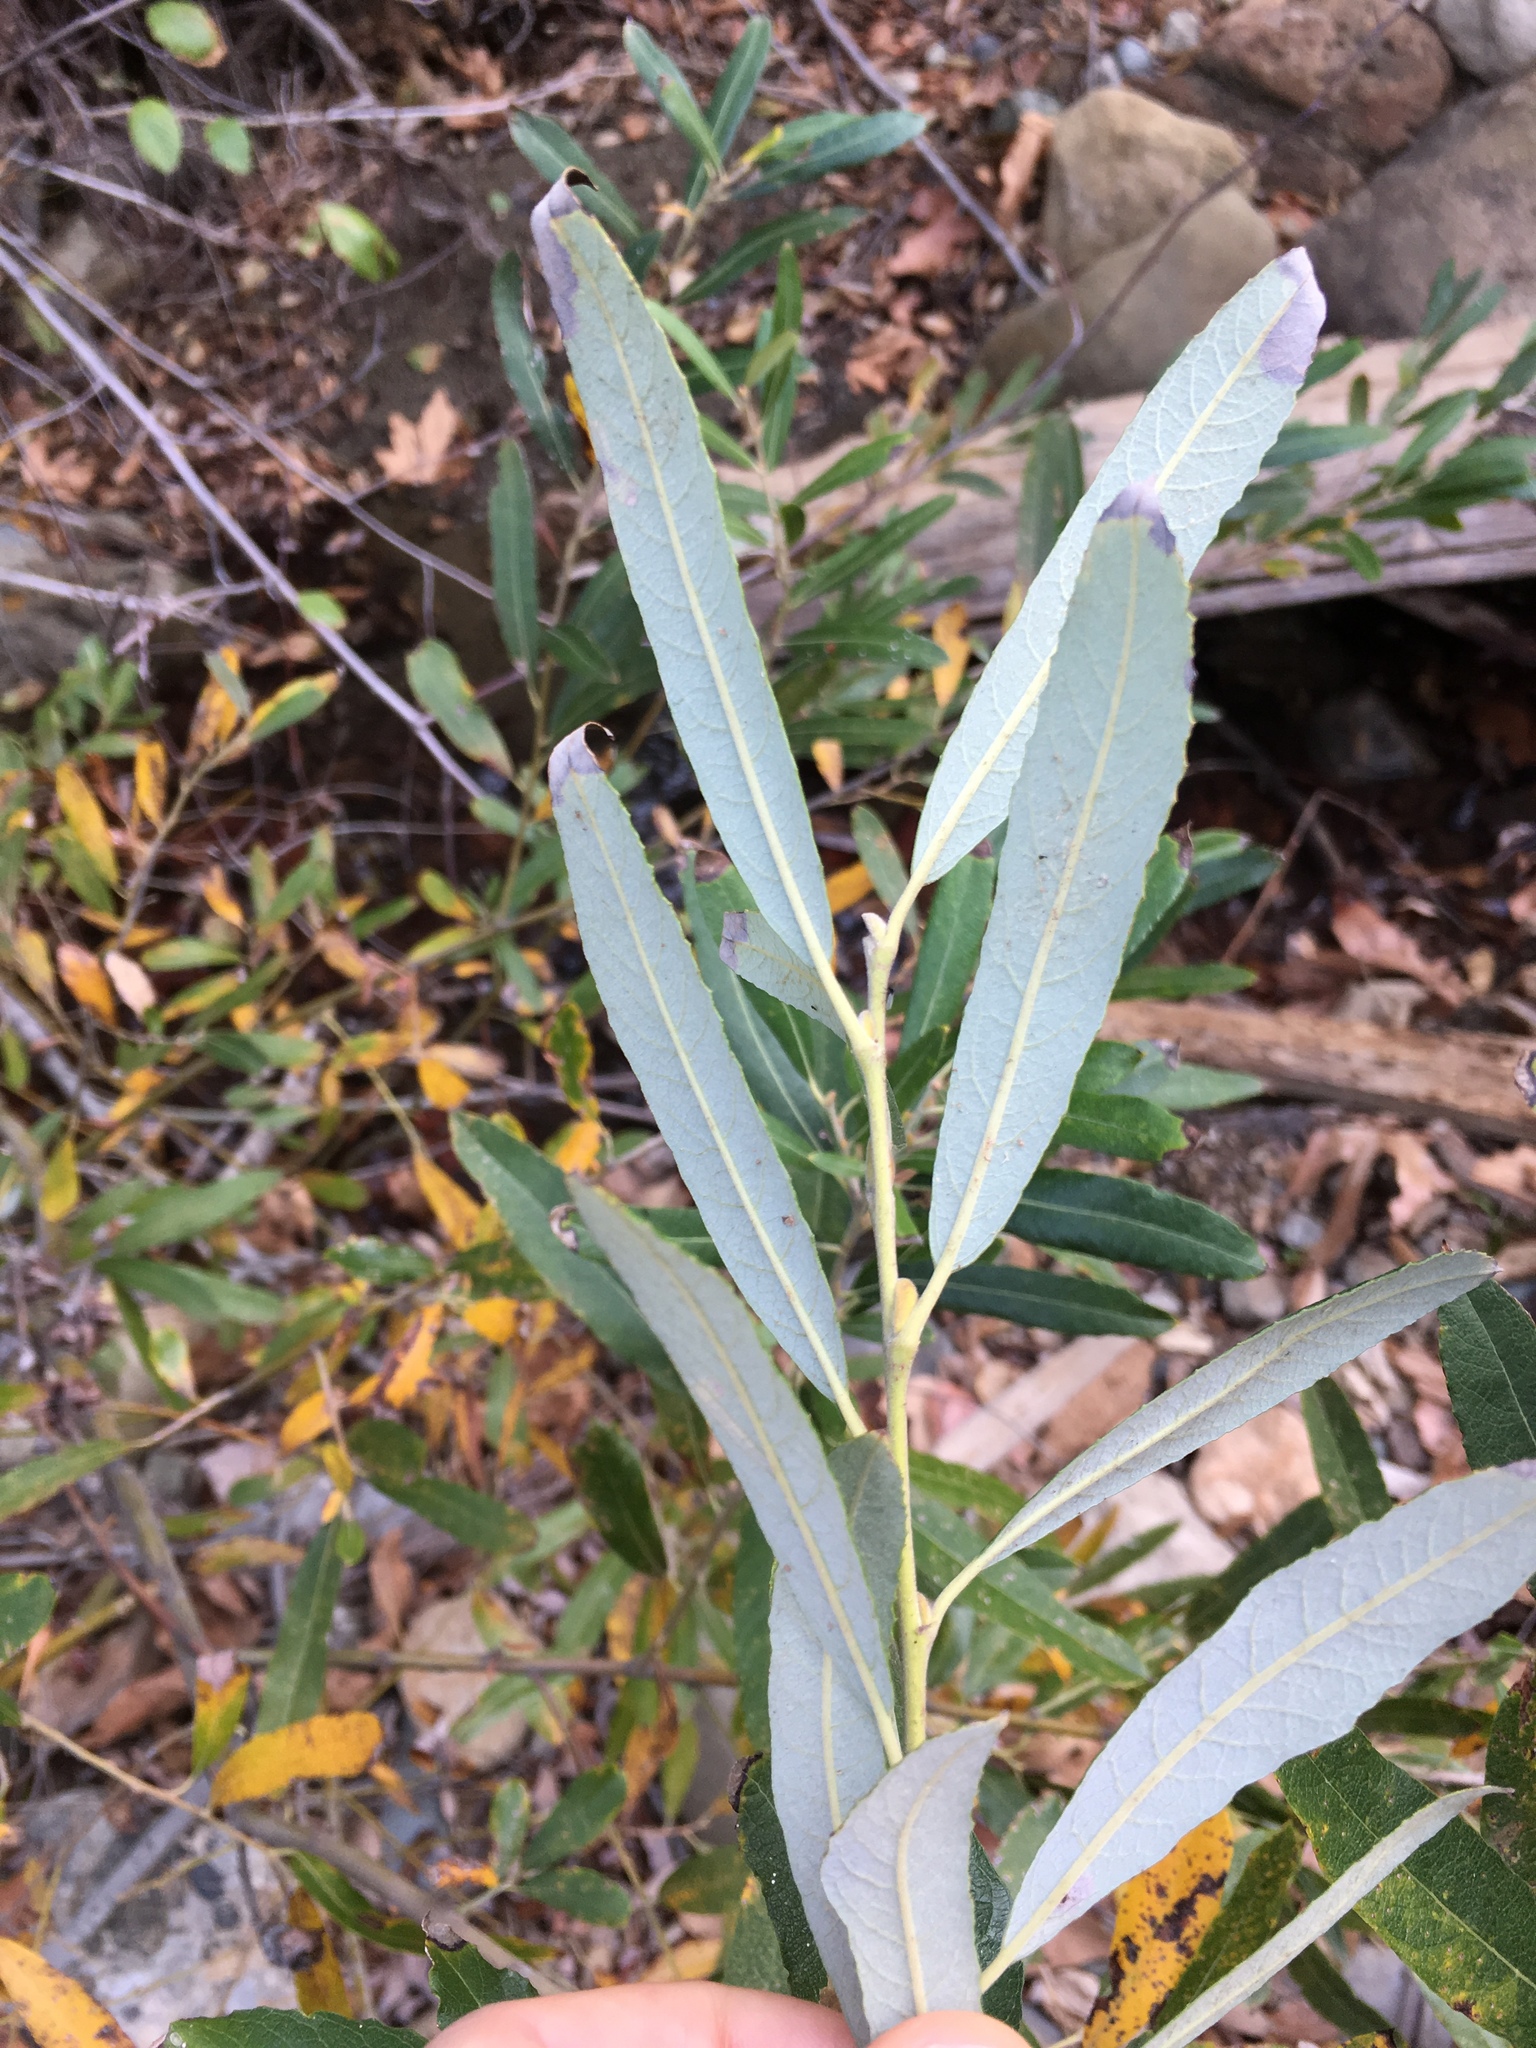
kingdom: Plantae
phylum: Tracheophyta
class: Magnoliopsida
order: Malpighiales
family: Salicaceae
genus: Salix
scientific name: Salix lasiolepis
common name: Arroyo willow
